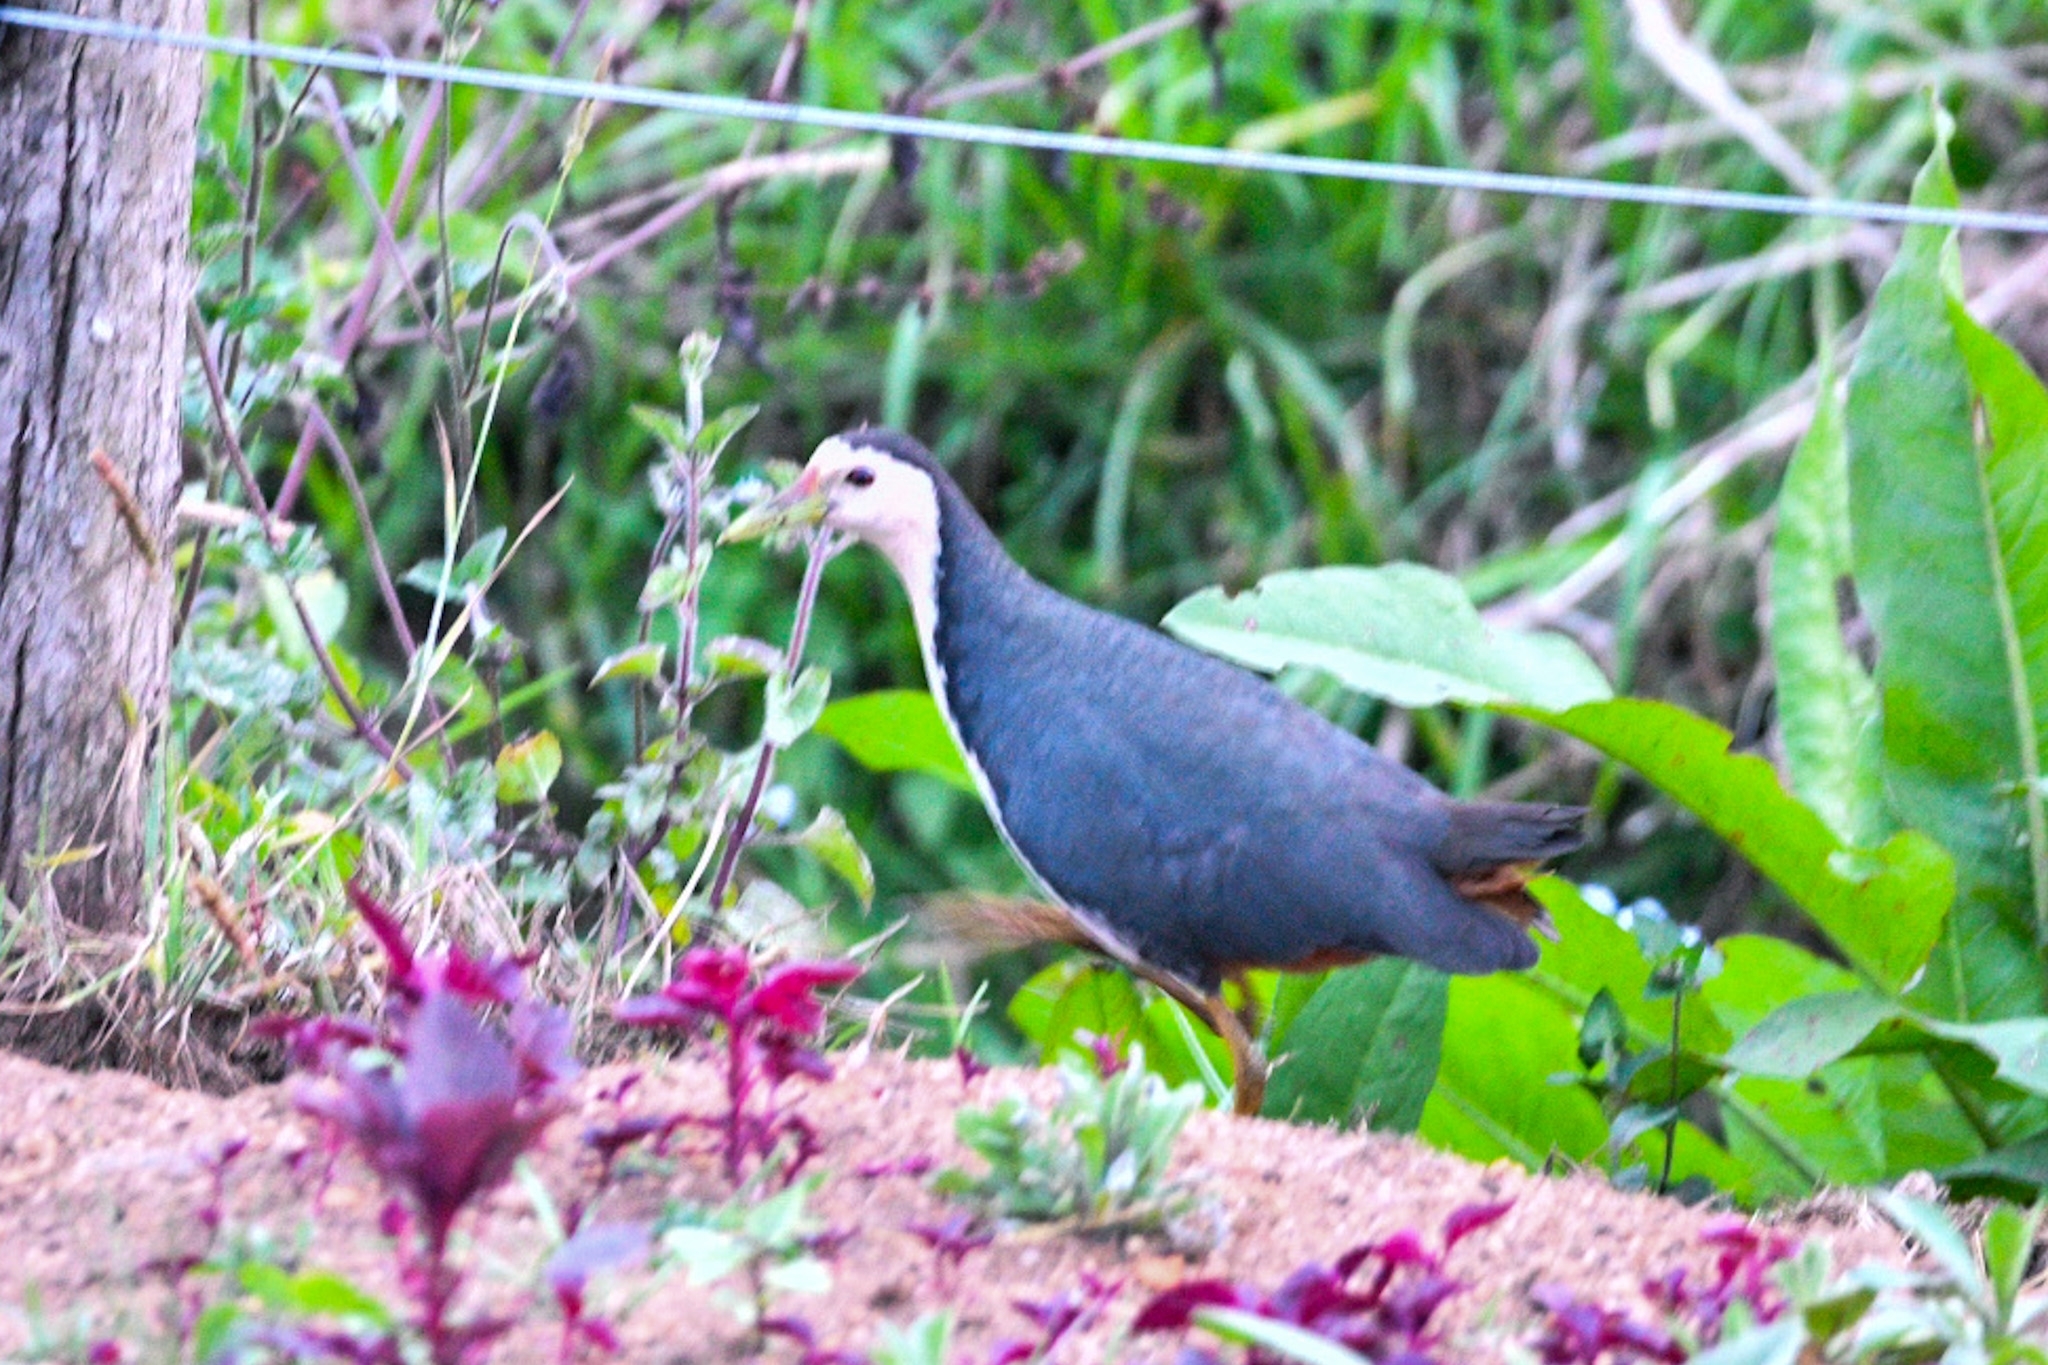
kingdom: Animalia
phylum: Chordata
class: Aves
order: Gruiformes
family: Rallidae
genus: Amaurornis
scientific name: Amaurornis phoenicurus
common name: White-breasted waterhen
